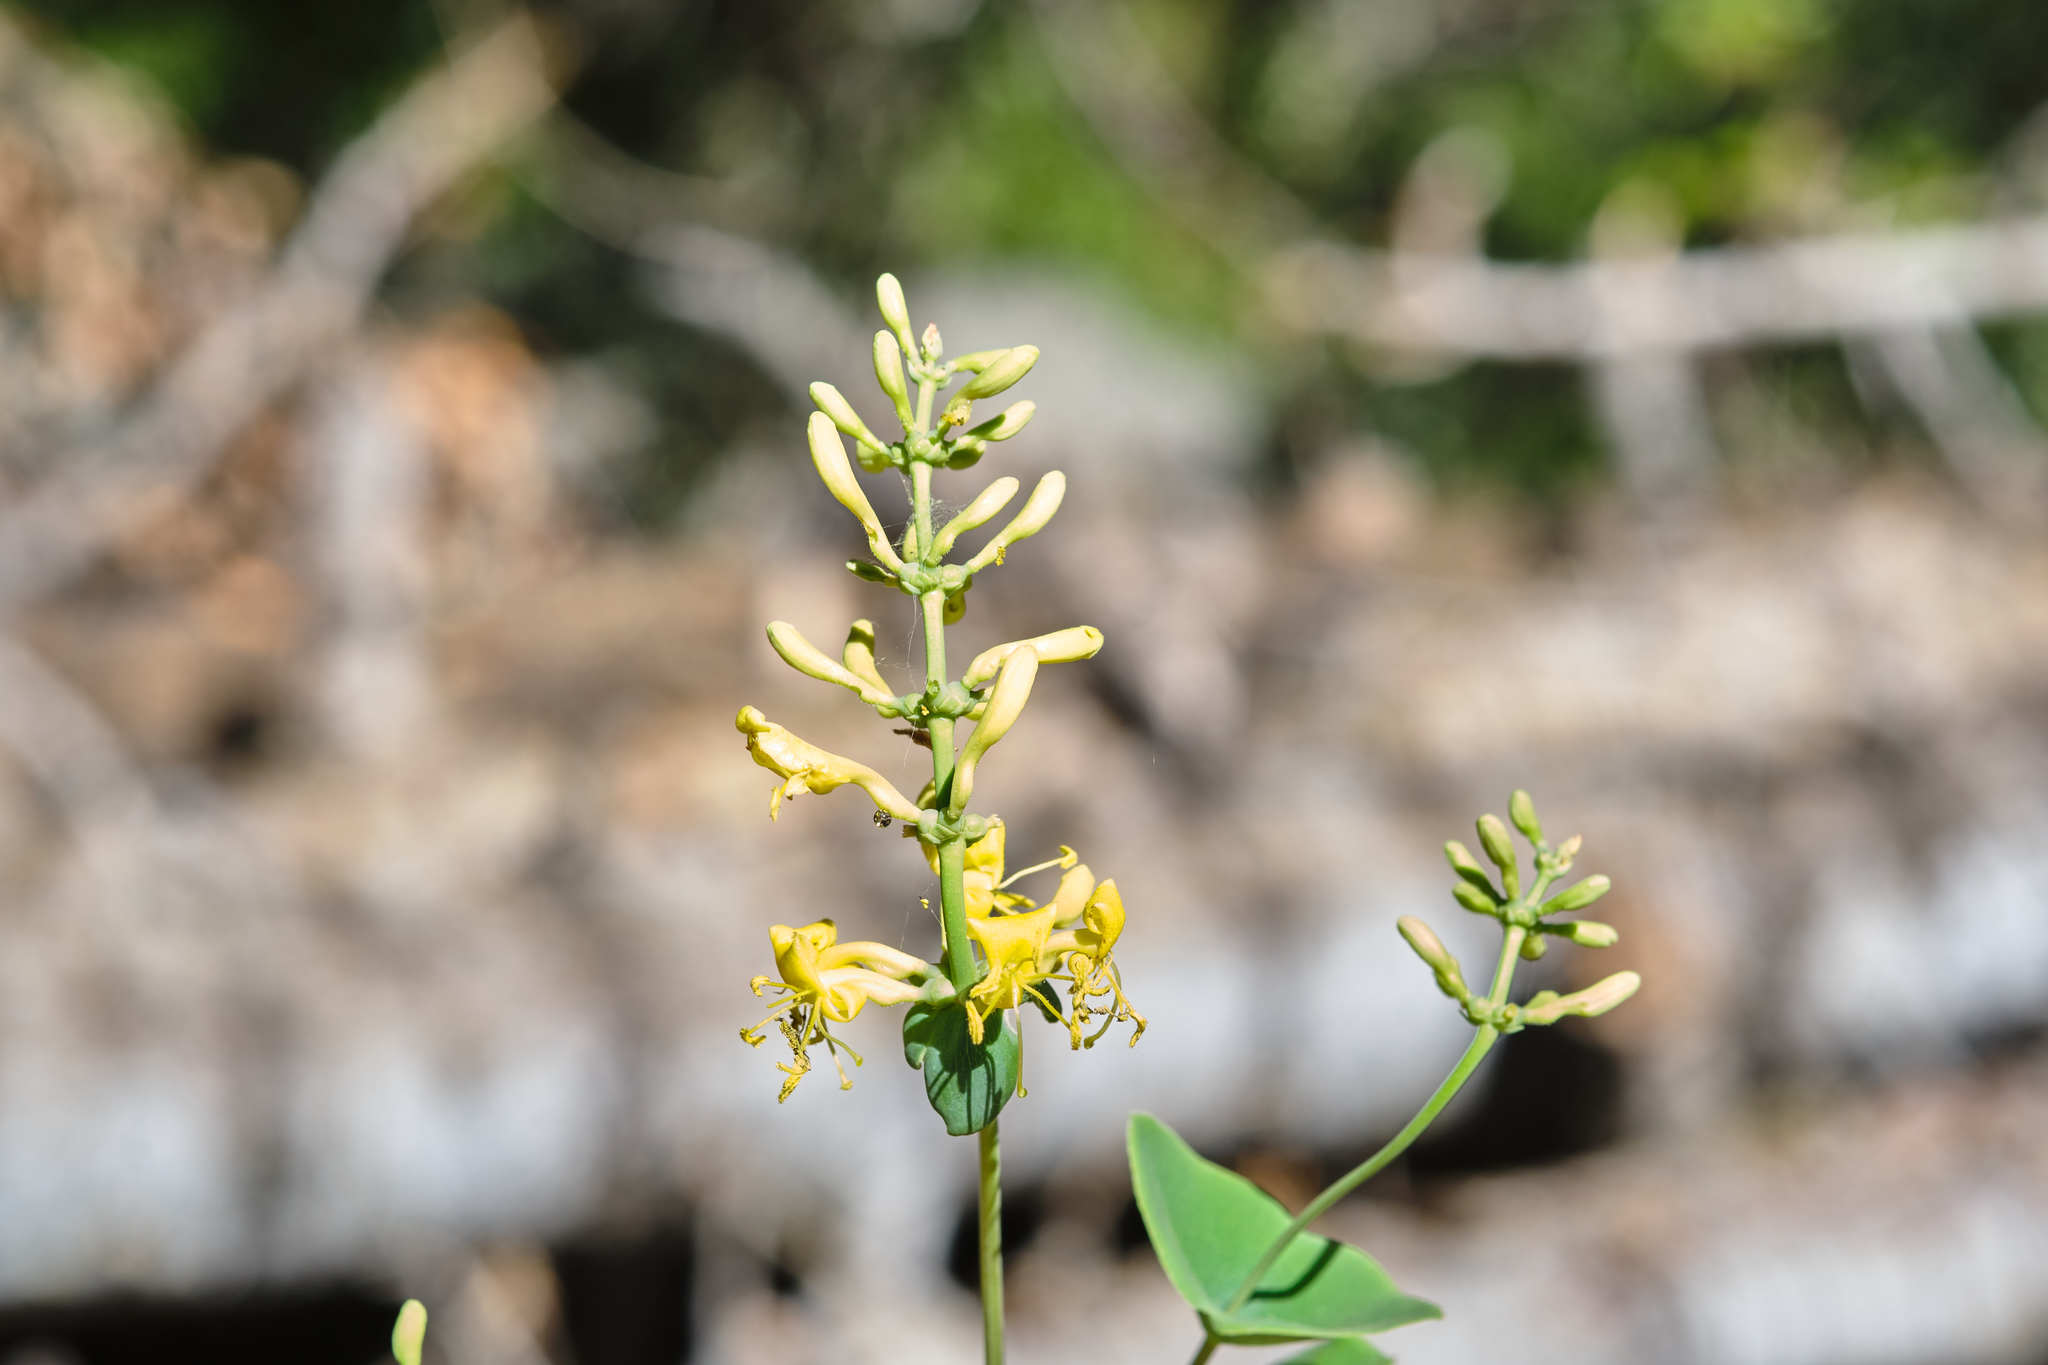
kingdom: Plantae
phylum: Tracheophyta
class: Magnoliopsida
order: Dipsacales
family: Caprifoliaceae
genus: Lonicera
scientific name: Lonicera interrupta
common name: Chaparral honeysuckle
